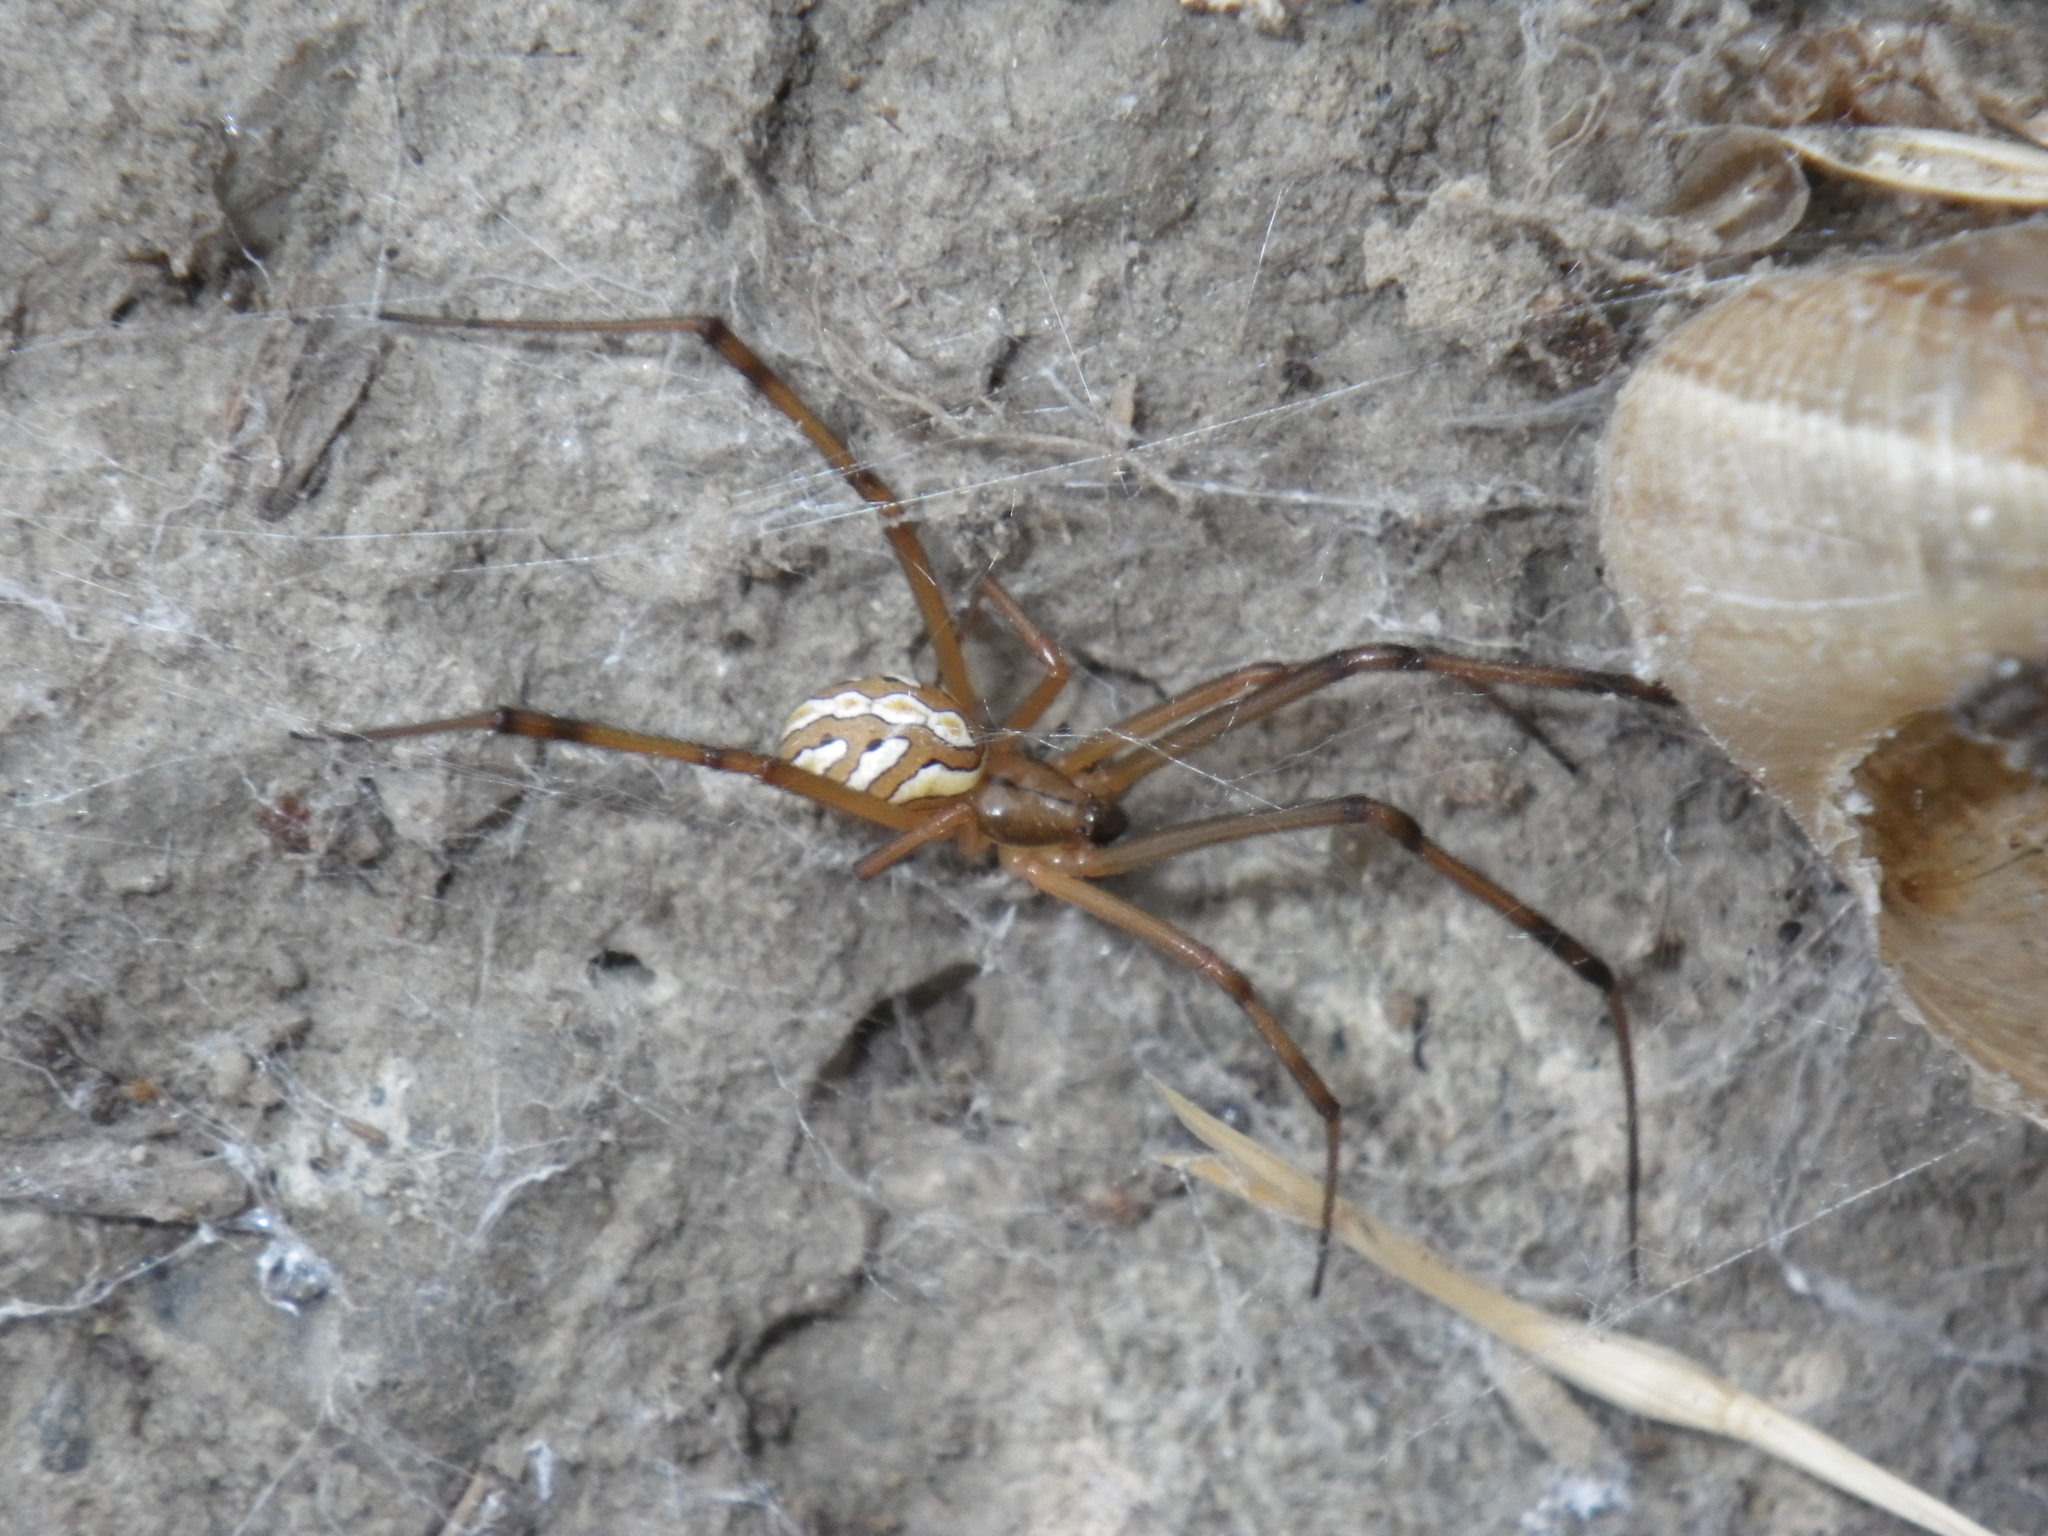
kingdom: Animalia
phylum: Arthropoda
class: Arachnida
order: Araneae
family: Theridiidae
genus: Latrodectus
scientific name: Latrodectus hesperus
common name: Western black widow
